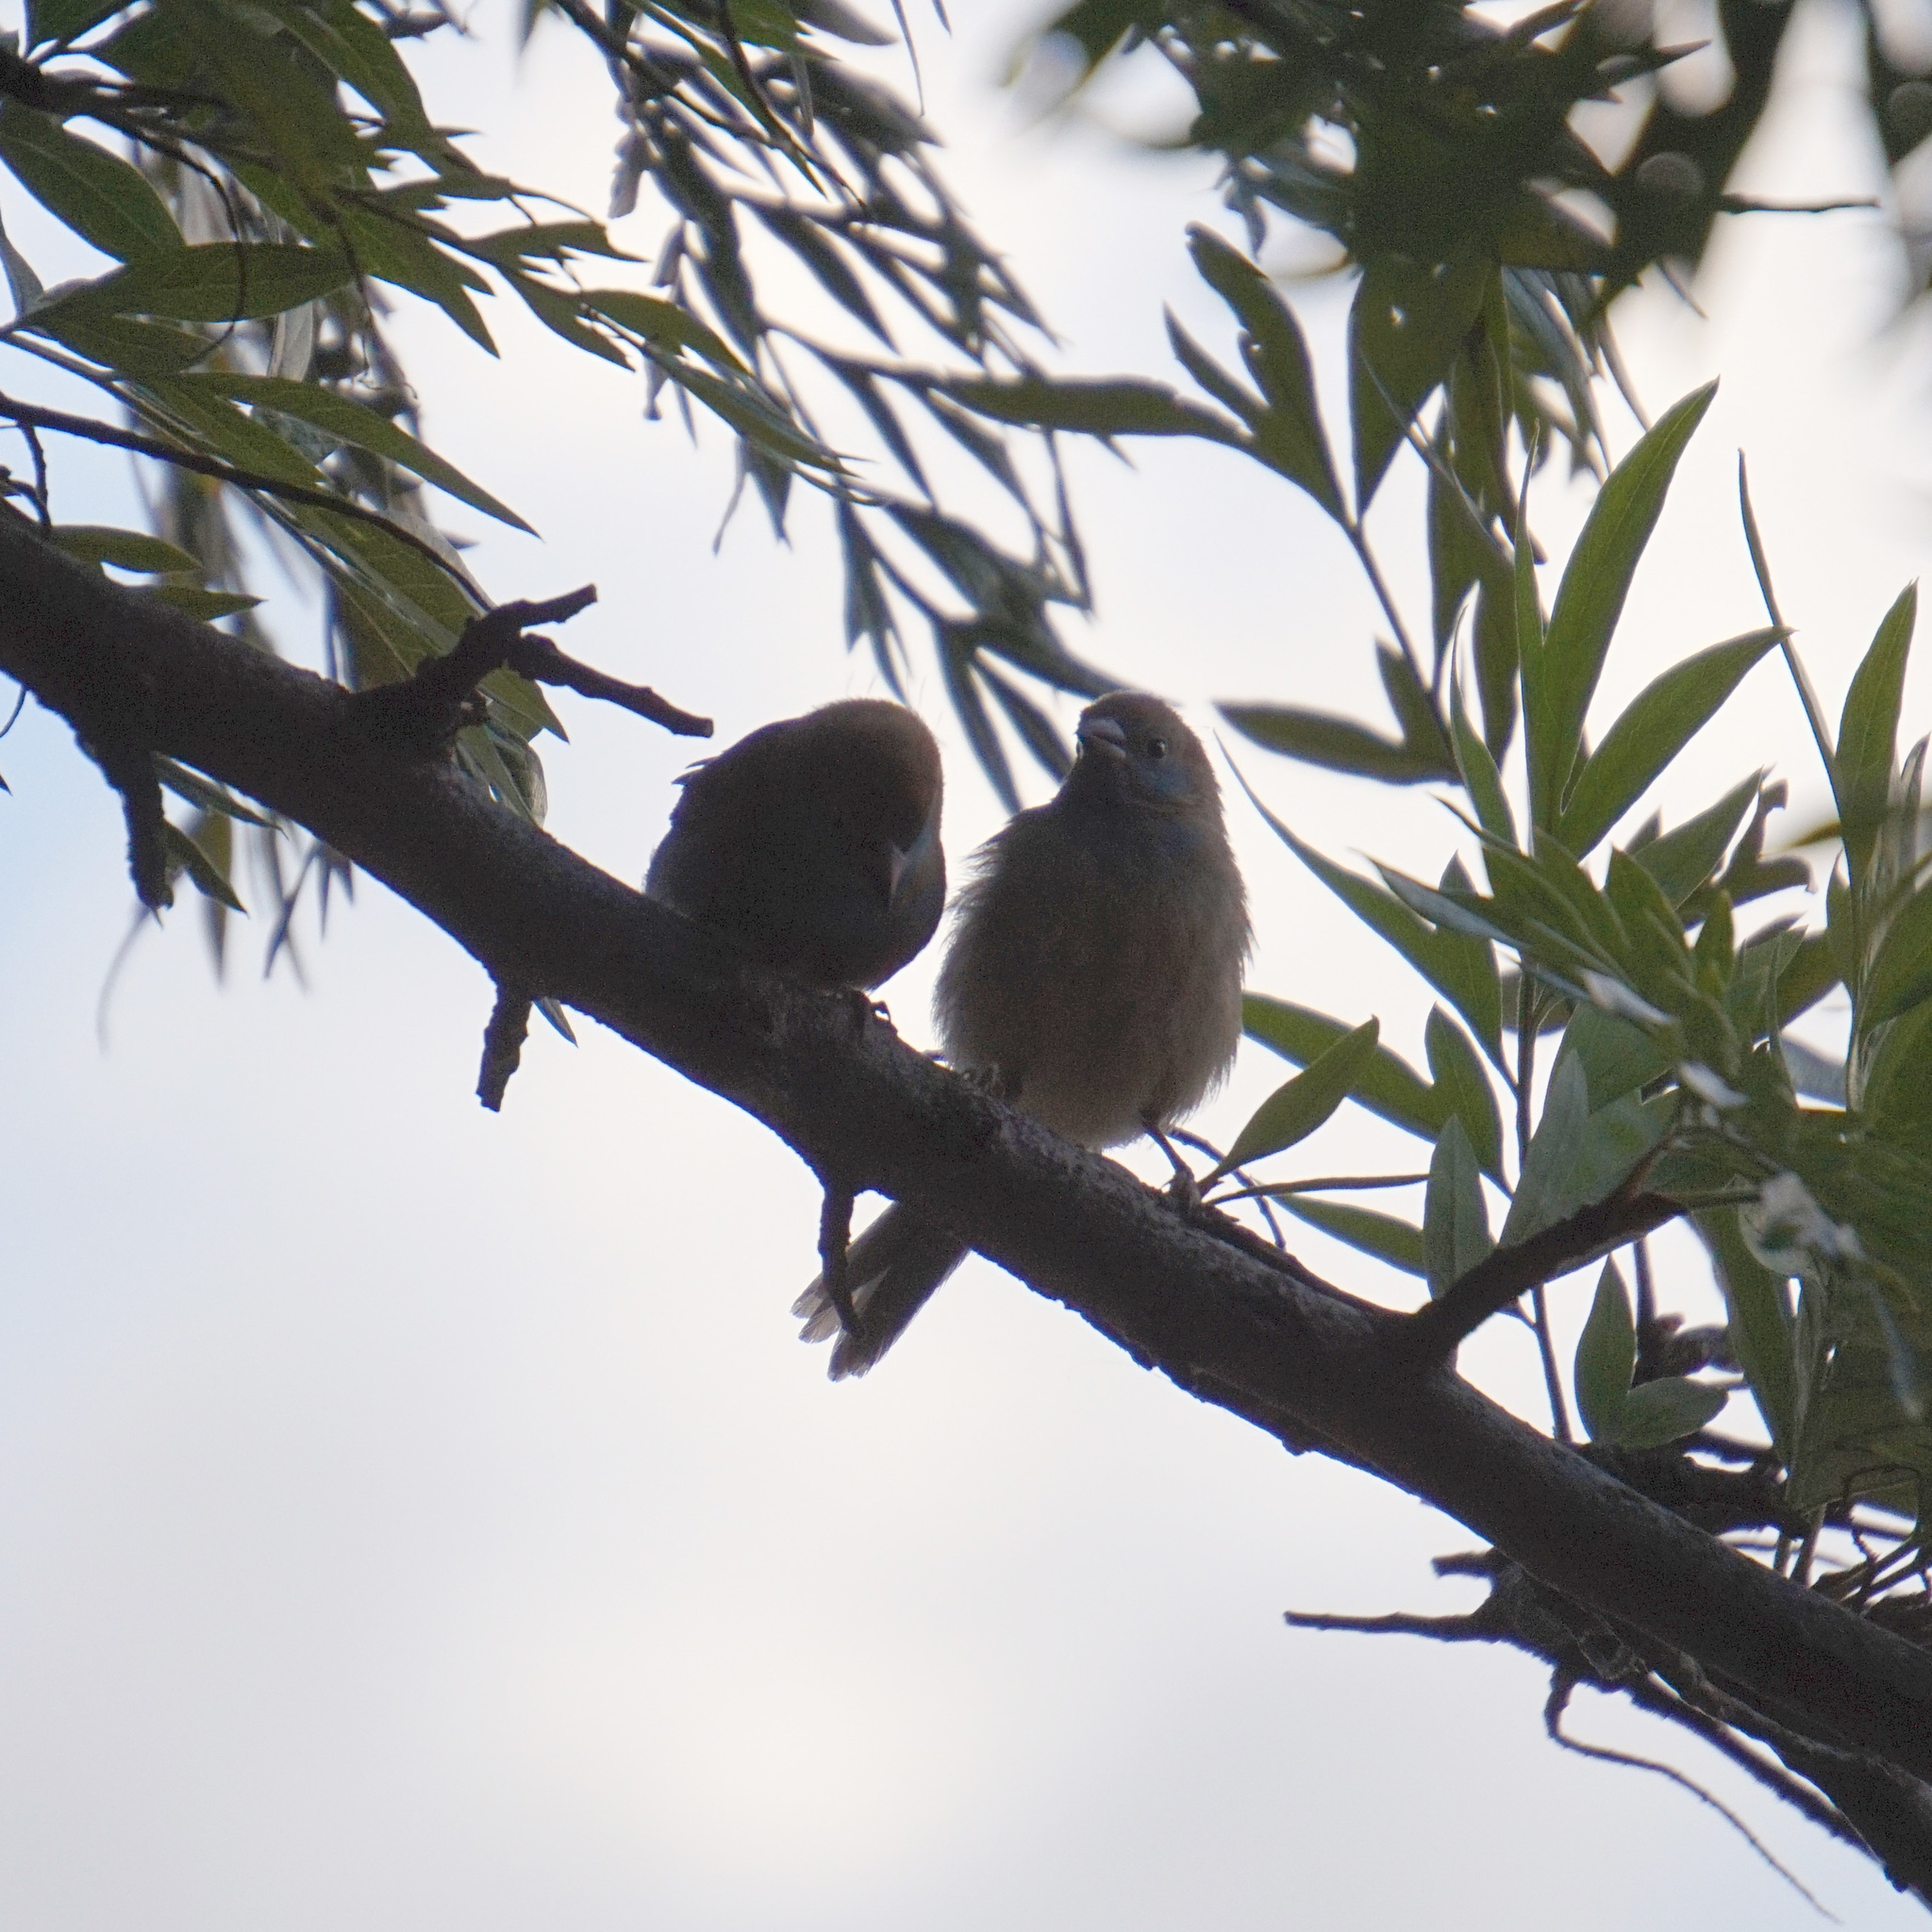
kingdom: Animalia
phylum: Chordata
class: Aves
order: Passeriformes
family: Estrildidae
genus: Uraeginthus
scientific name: Uraeginthus bengalus
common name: Red-cheeked cordon-bleu
